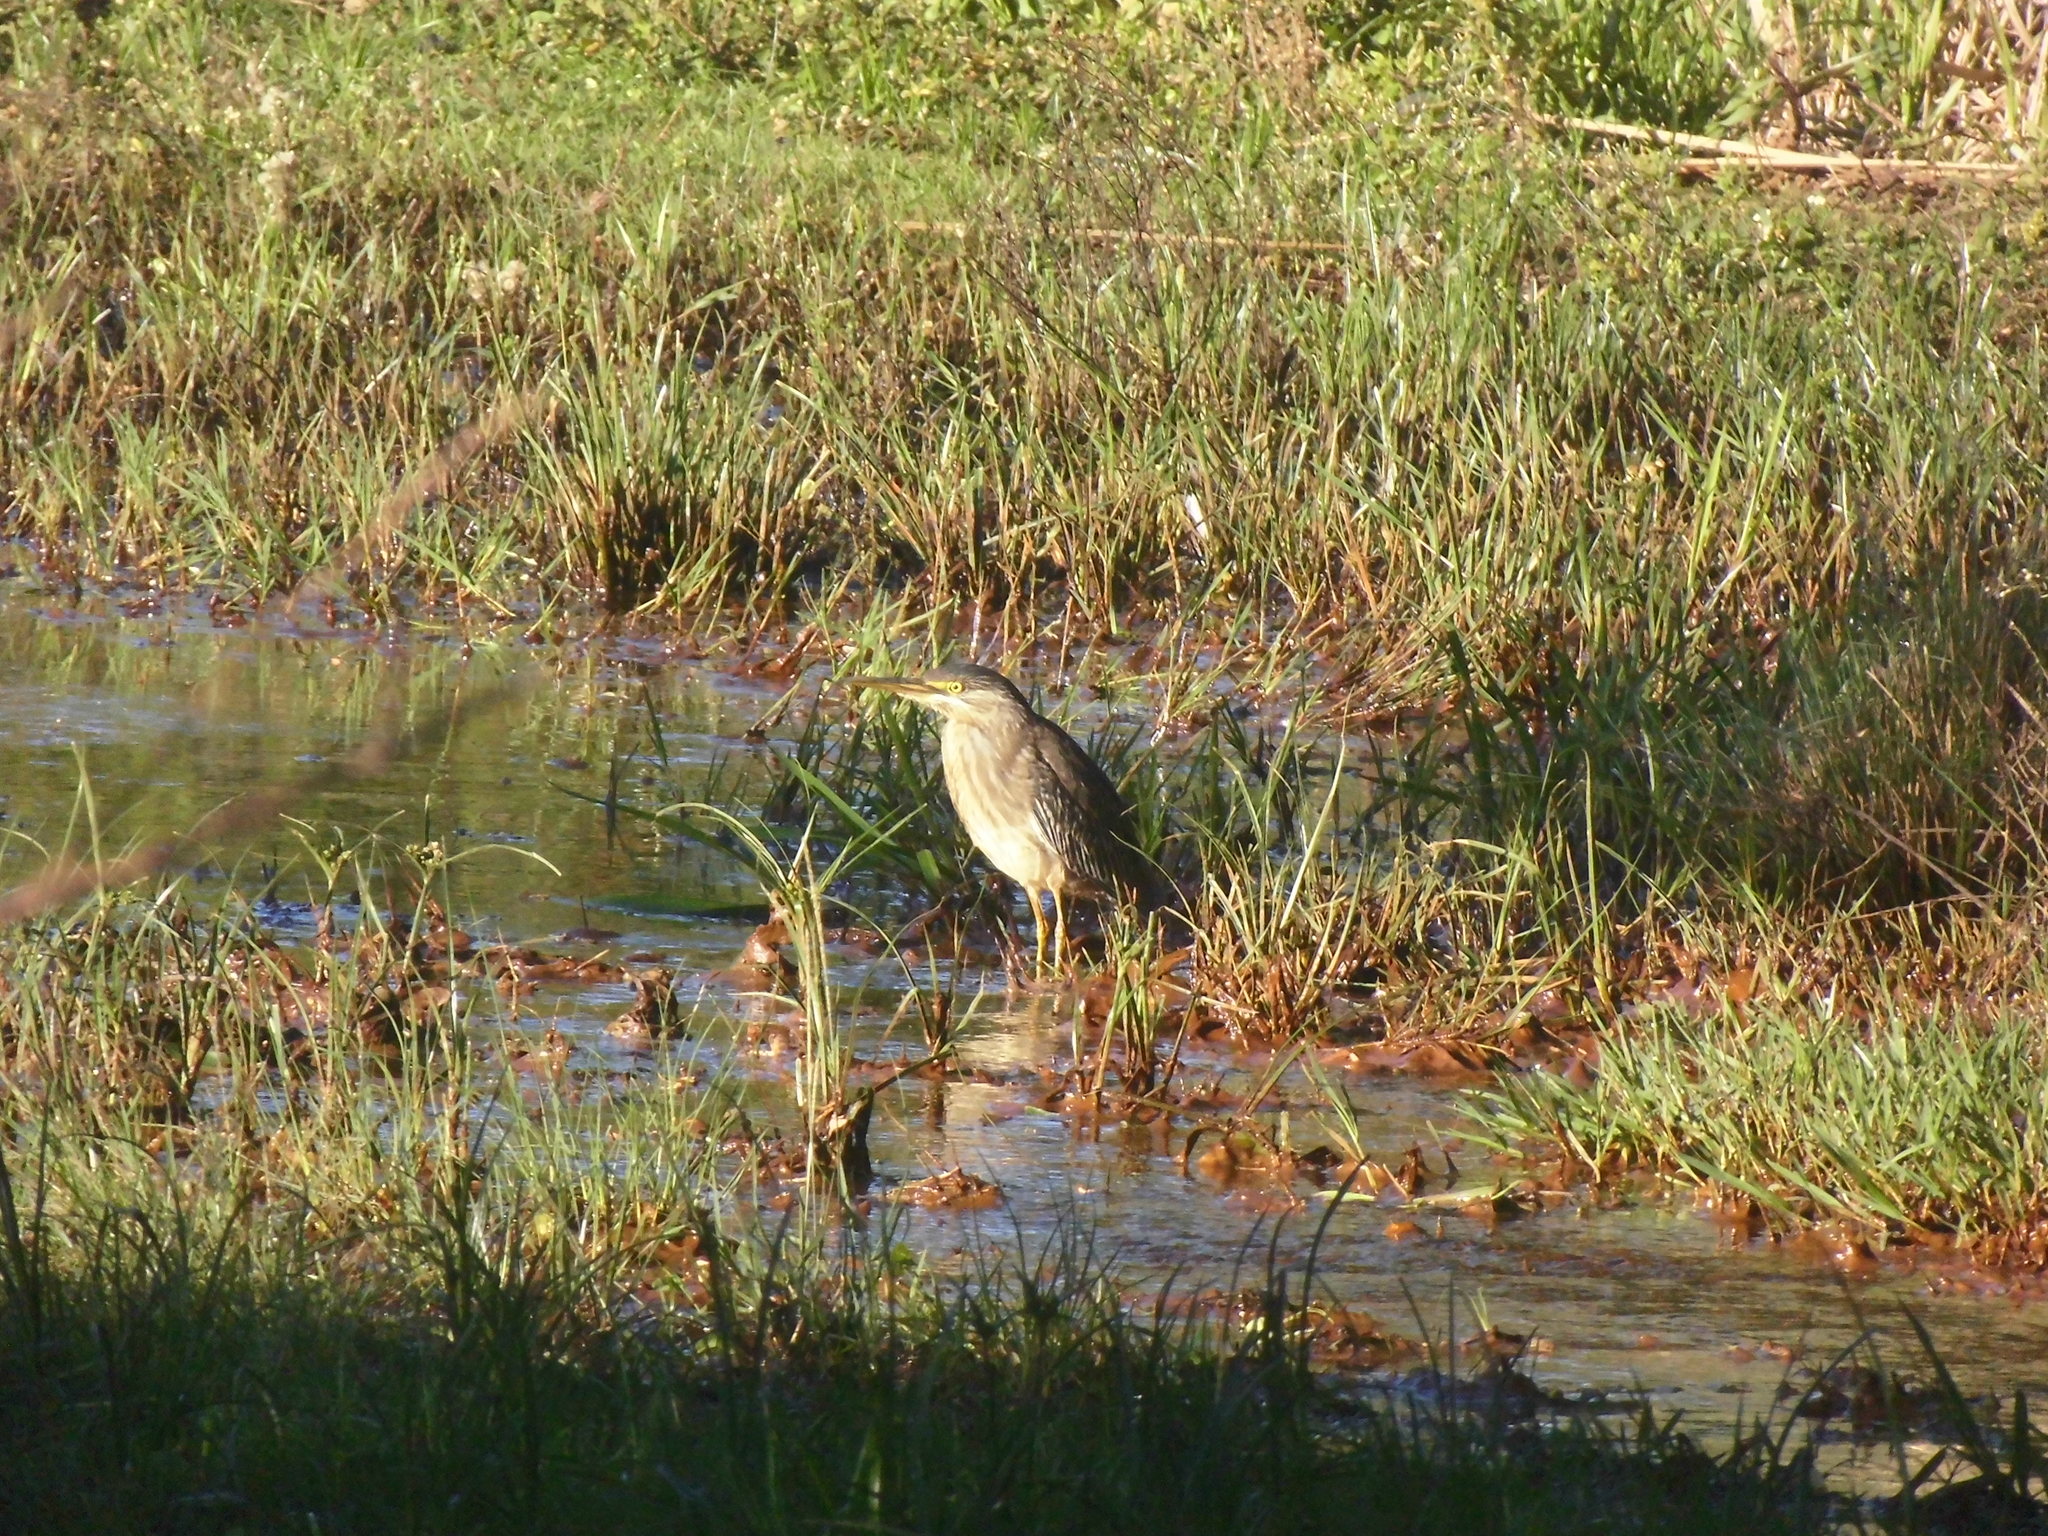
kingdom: Animalia
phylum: Chordata
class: Aves
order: Pelecaniformes
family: Ardeidae
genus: Butorides
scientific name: Butorides striata
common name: Striated heron
